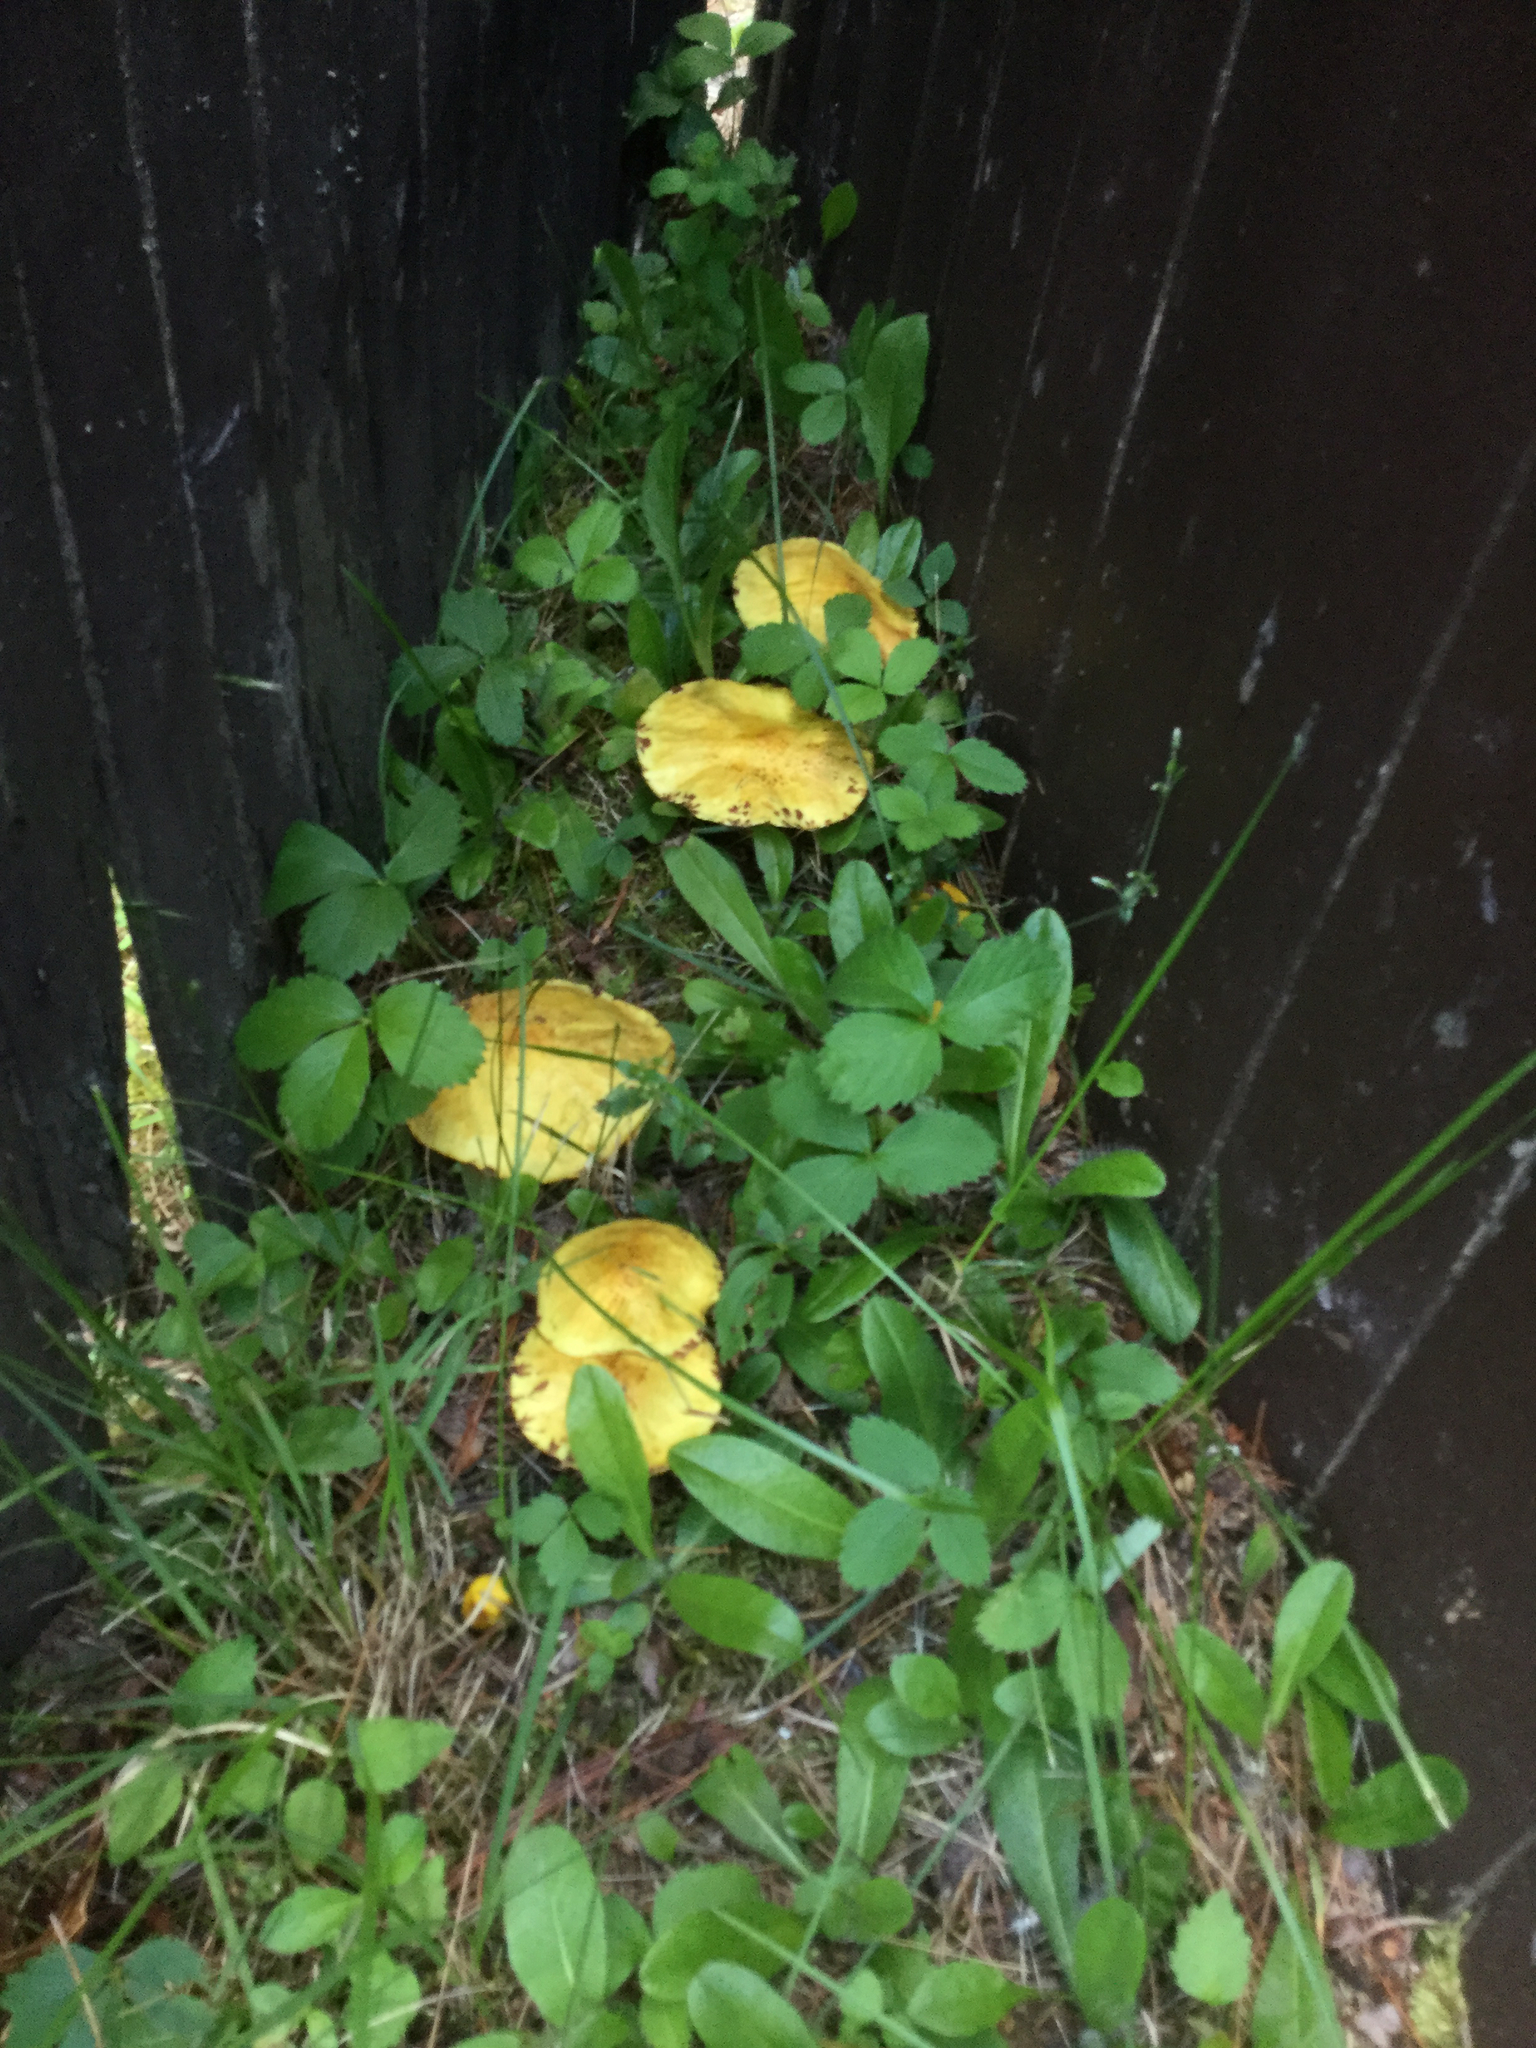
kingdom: Fungi
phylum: Basidiomycota
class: Agaricomycetes
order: Boletales
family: Suillaceae
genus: Suillus
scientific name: Suillus americanus
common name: Chicken fat mushroom
